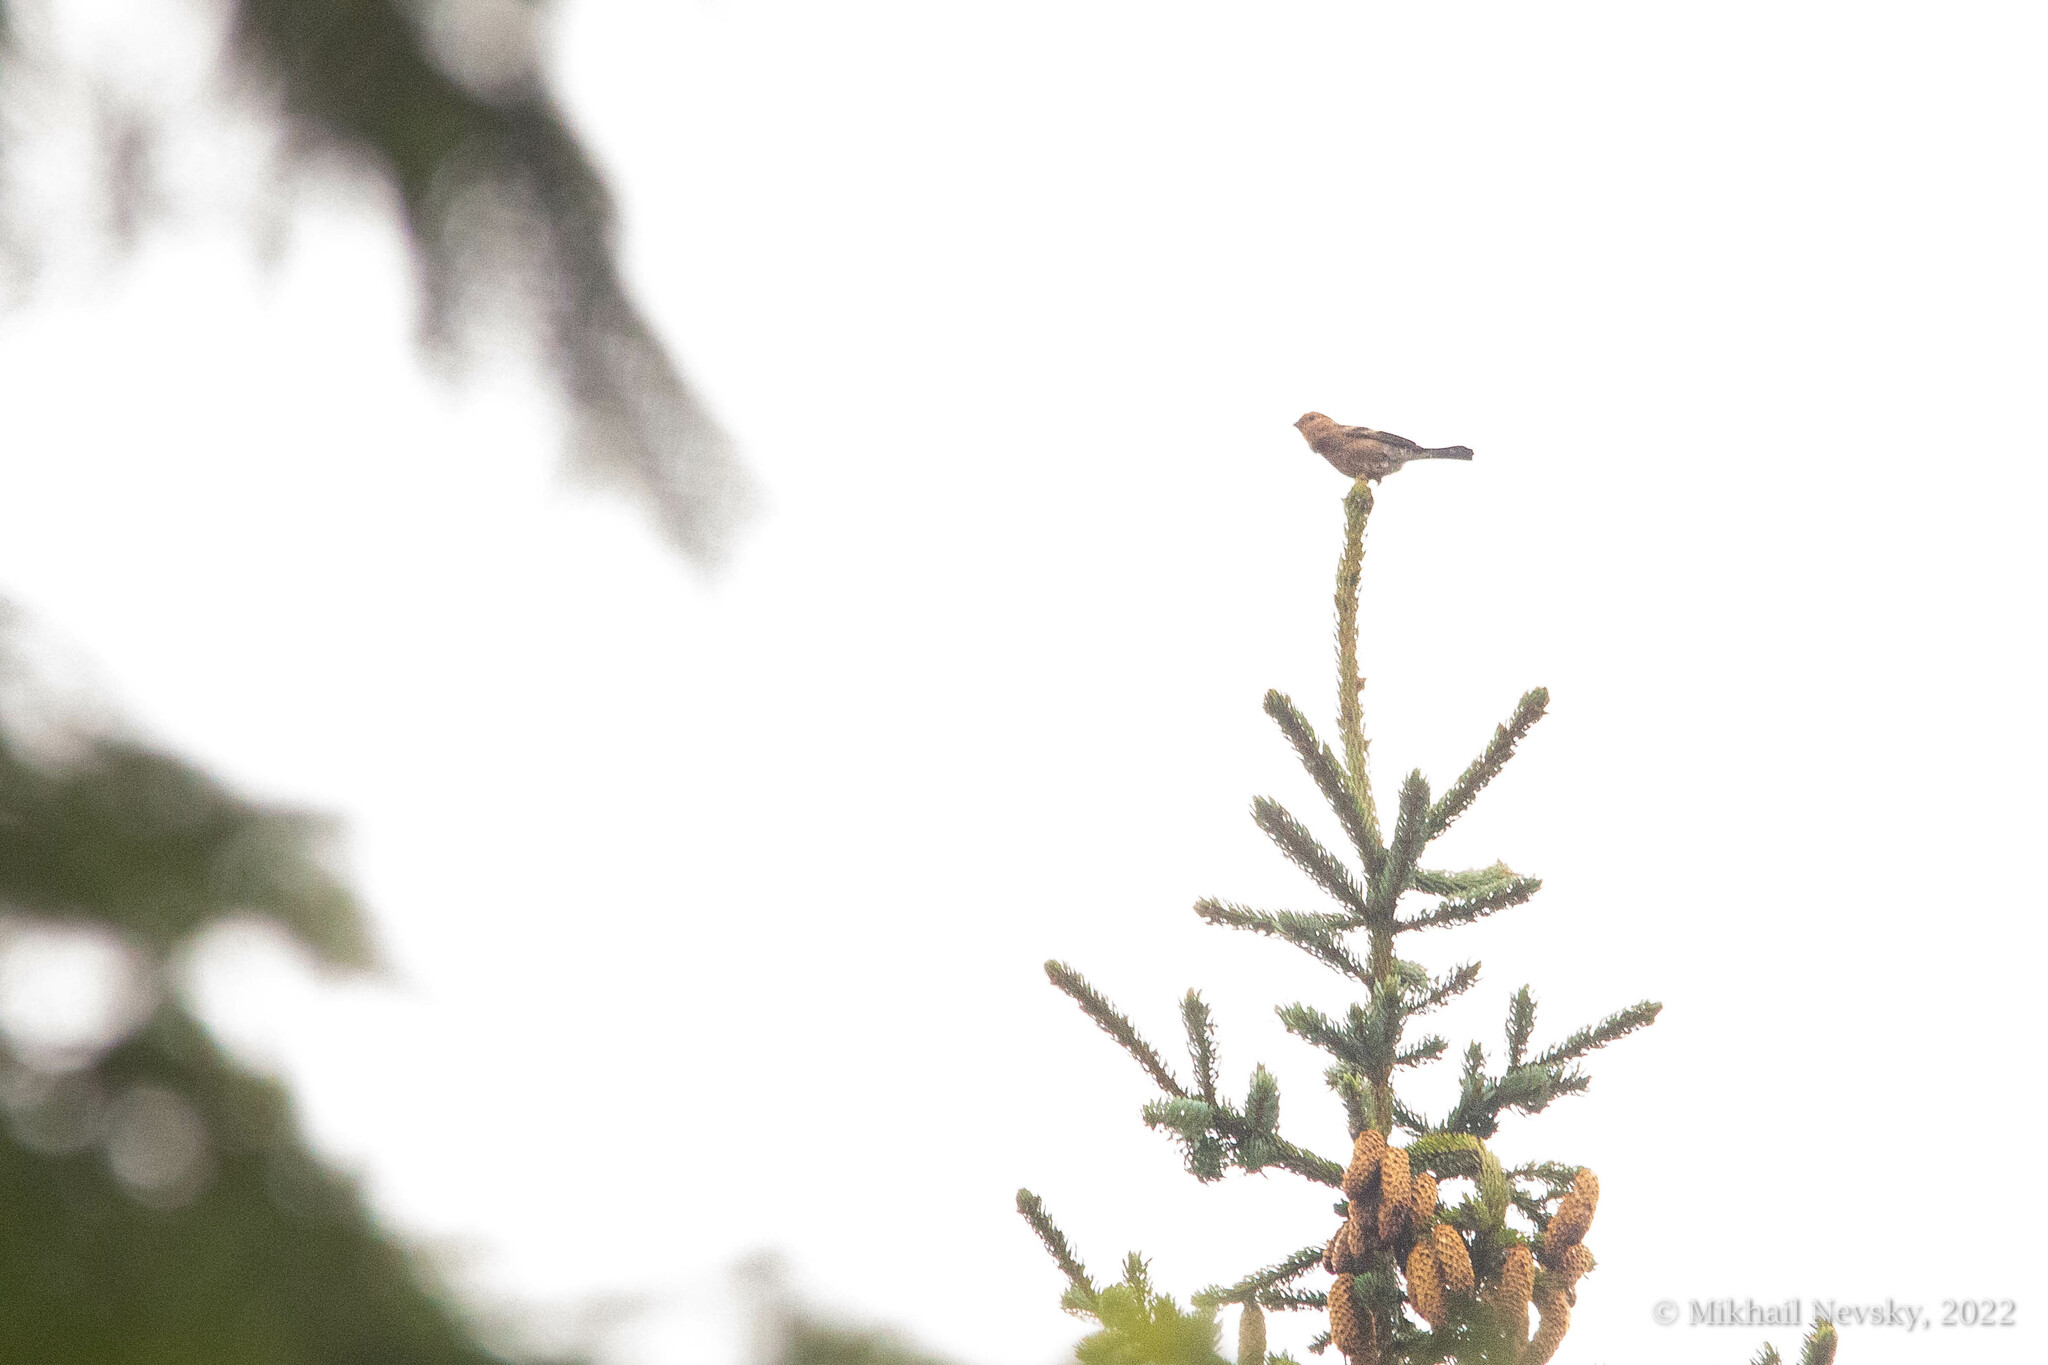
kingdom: Animalia
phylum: Chordata
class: Aves
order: Passeriformes
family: Fringillidae
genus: Pyrrhula
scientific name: Pyrrhula pyrrhula
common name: Eurasian bullfinch
